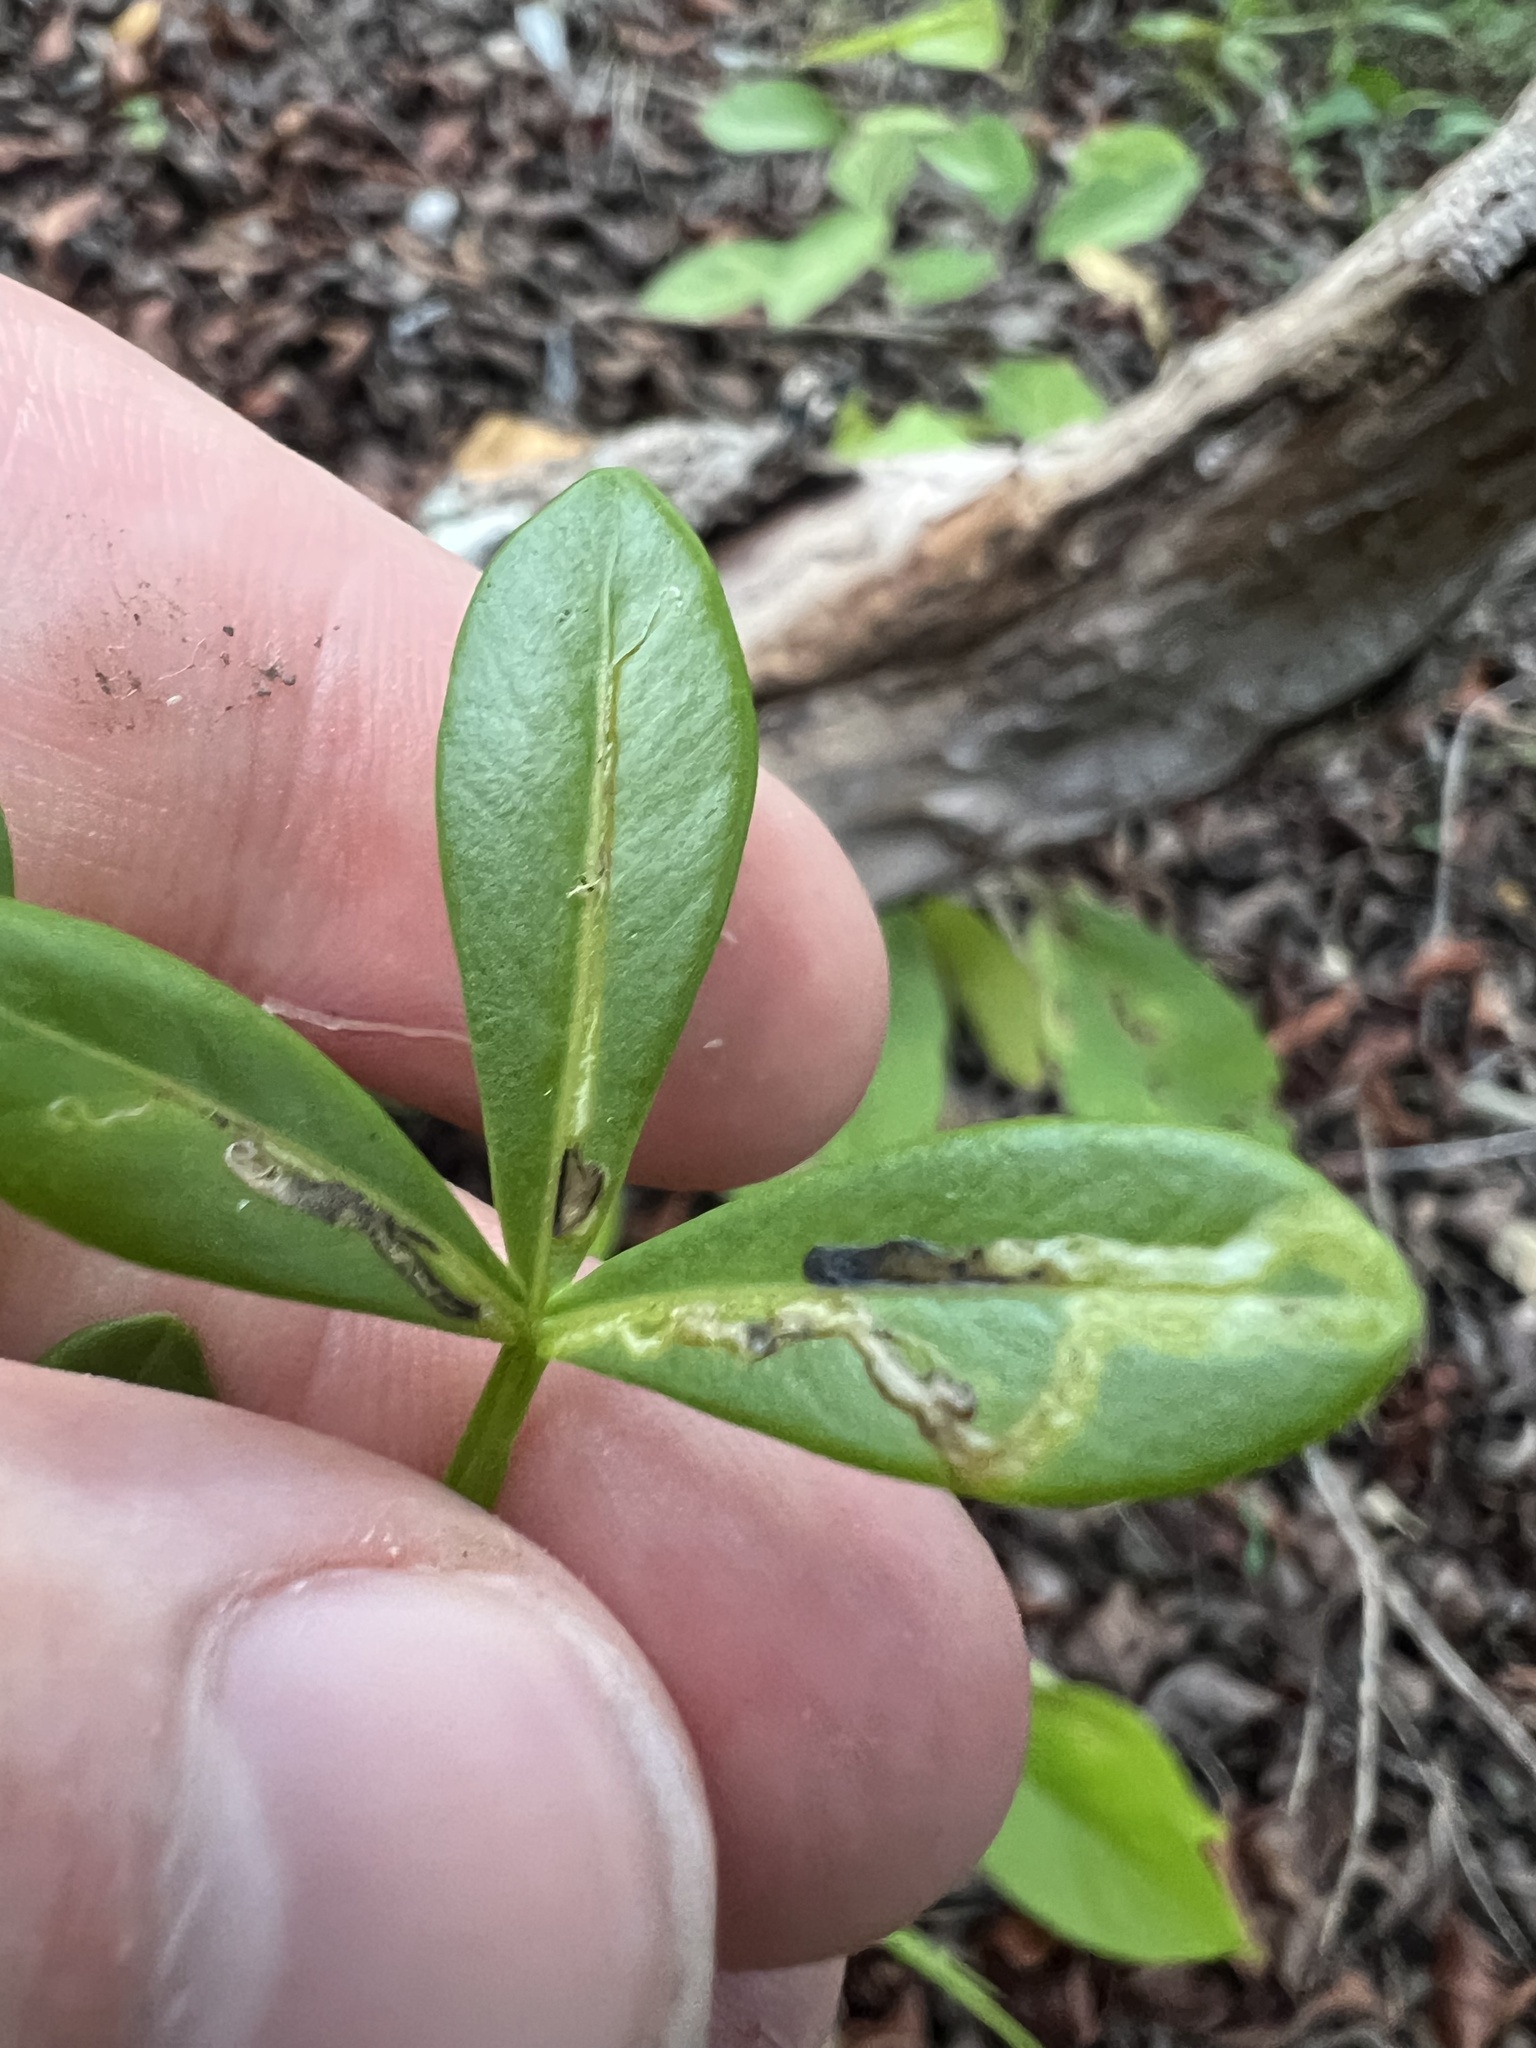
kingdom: Plantae
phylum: Tracheophyta
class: Magnoliopsida
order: Sapindales
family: Sapindaceae
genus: Hypelate
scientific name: Hypelate trifoliata
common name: Inkwood
